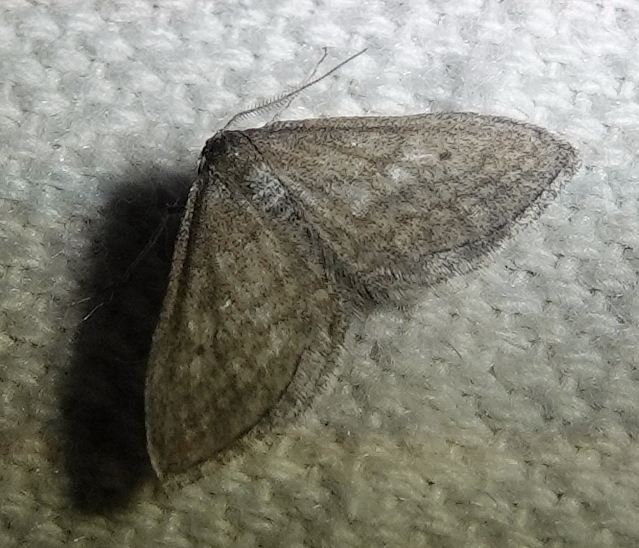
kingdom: Animalia
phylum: Arthropoda
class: Insecta
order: Lepidoptera
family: Geometridae
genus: Lobocleta
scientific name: Lobocleta plemyraria
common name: Straight-lined wave
